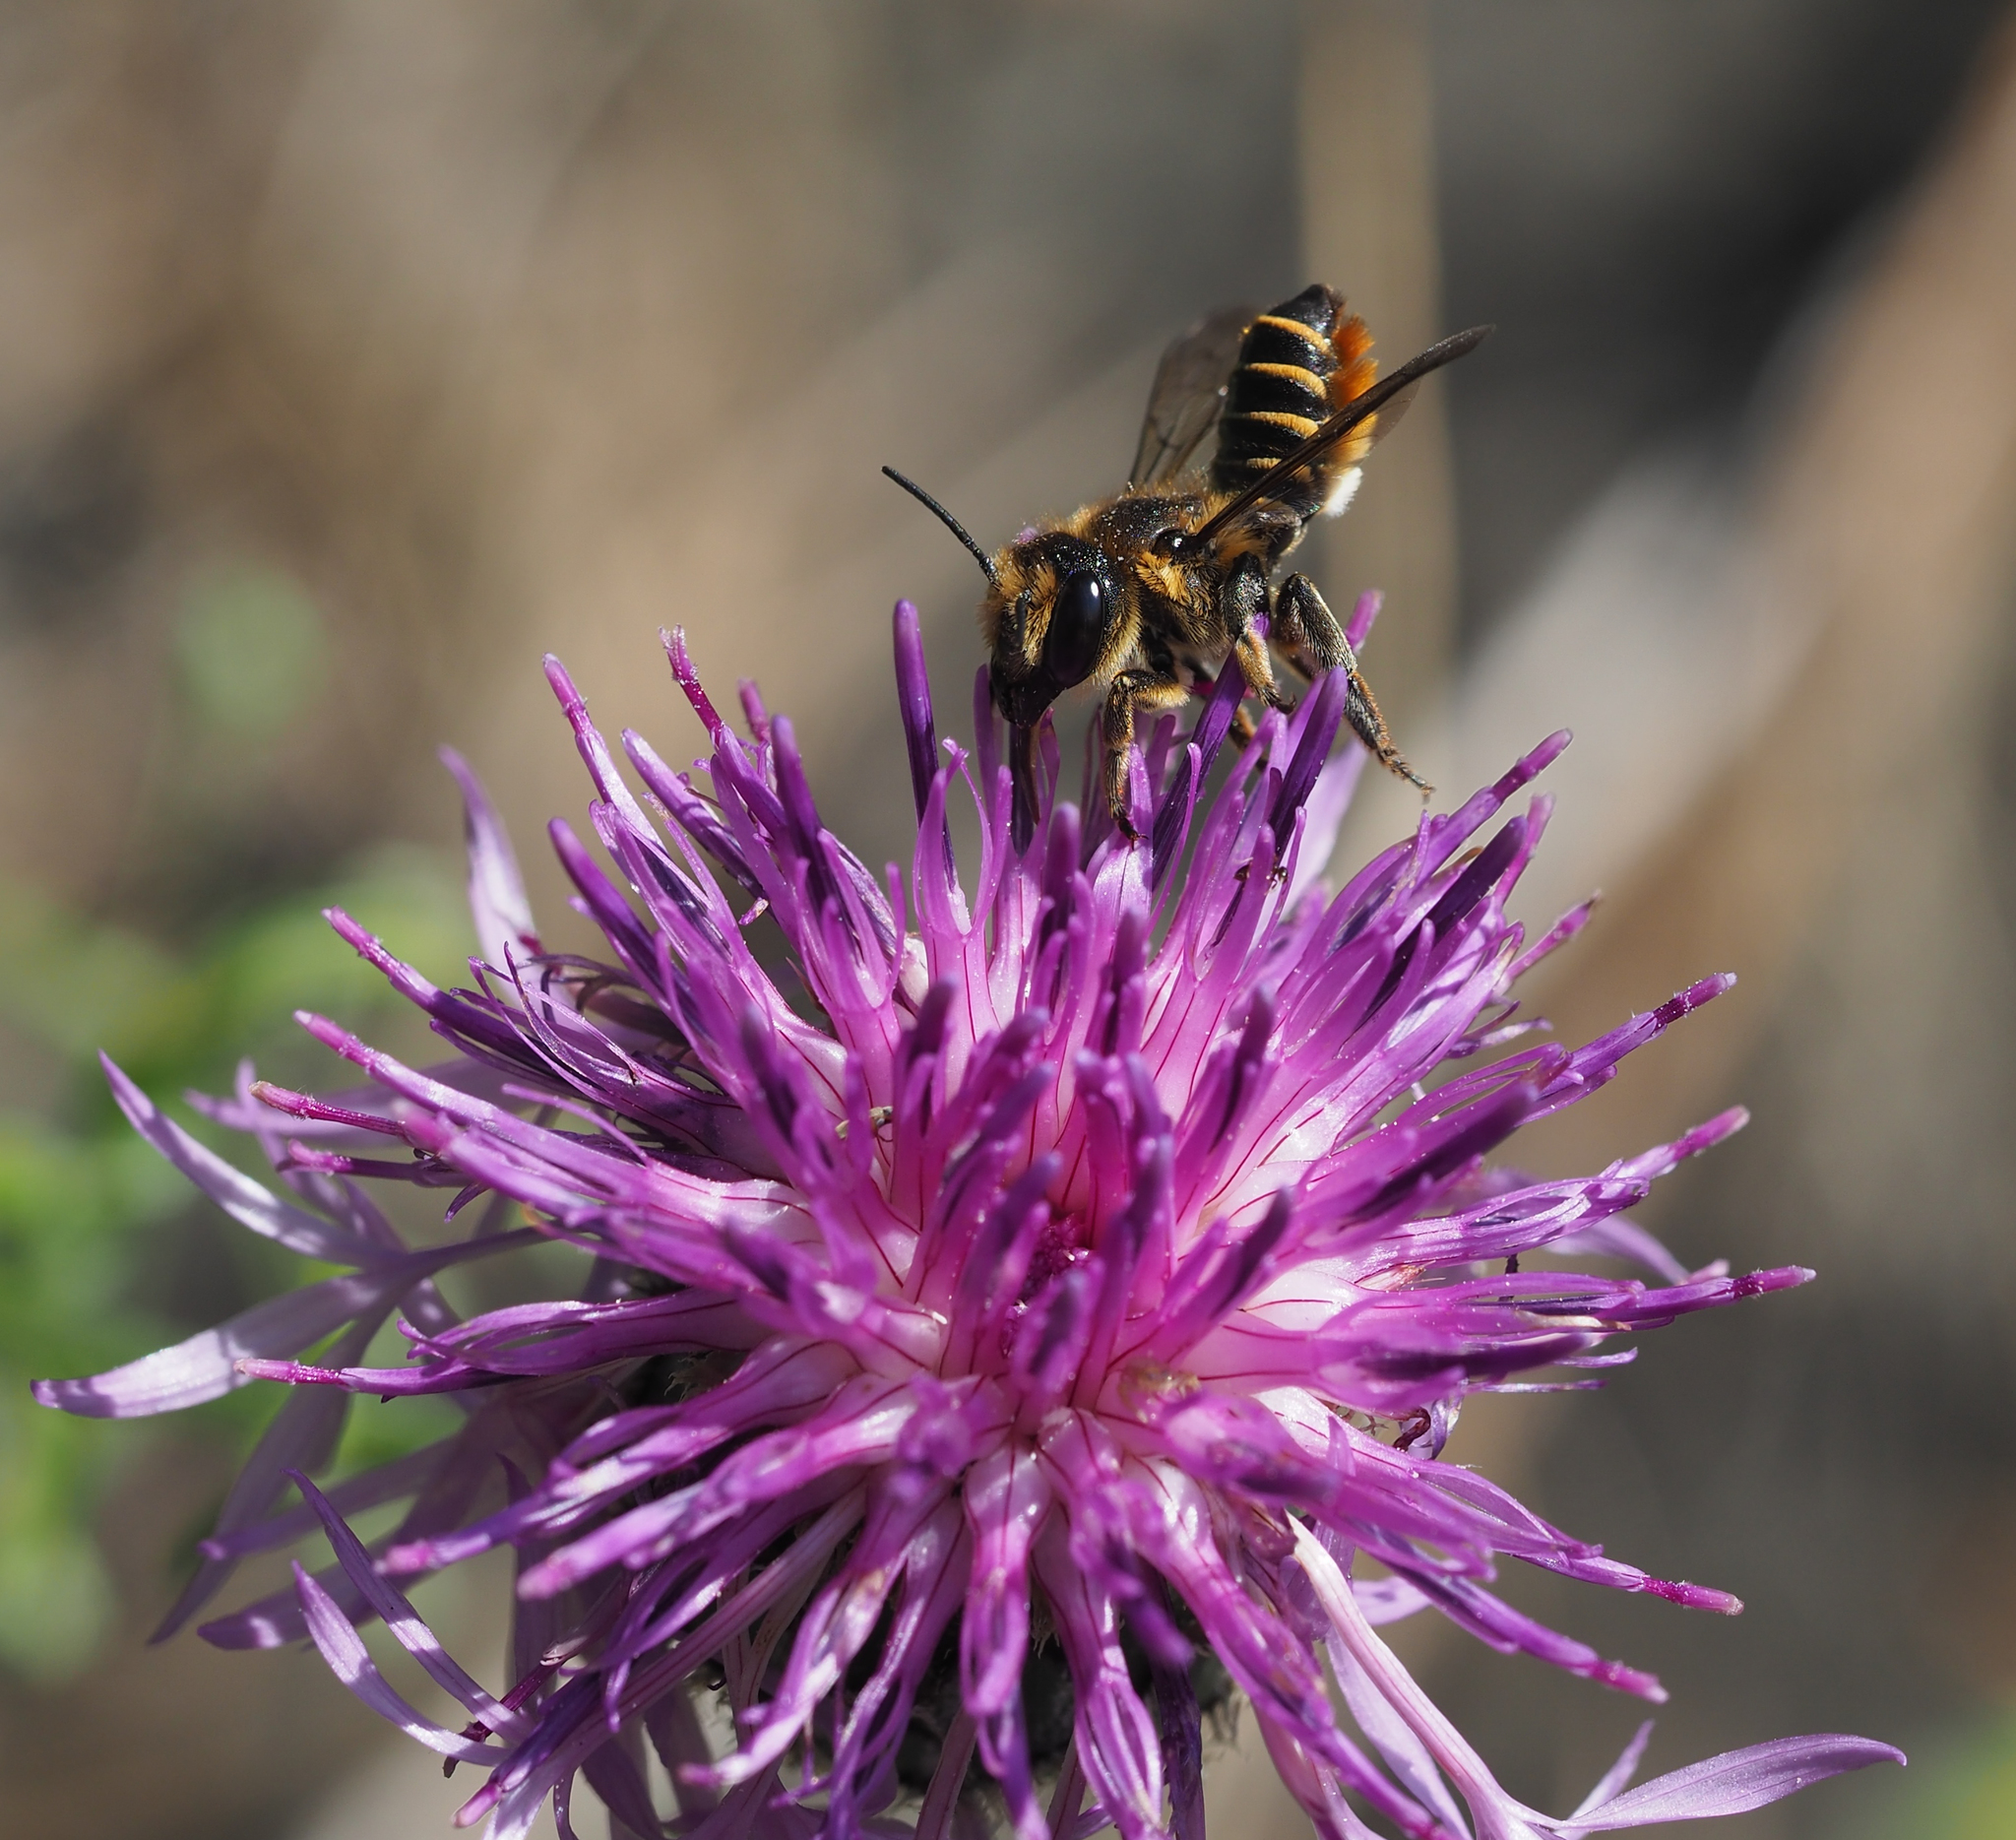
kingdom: Animalia
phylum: Arthropoda
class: Insecta
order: Hymenoptera
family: Megachilidae
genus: Megachile
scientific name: Megachile
